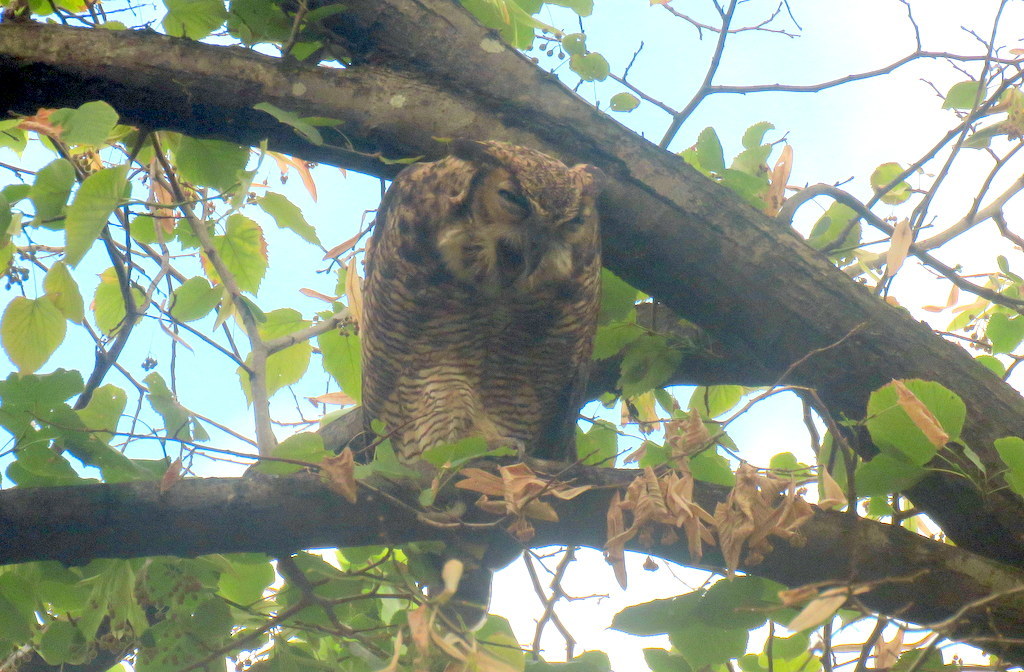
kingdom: Animalia
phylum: Chordata
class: Aves
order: Strigiformes
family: Strigidae
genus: Bubo
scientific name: Bubo virginianus
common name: Great horned owl
